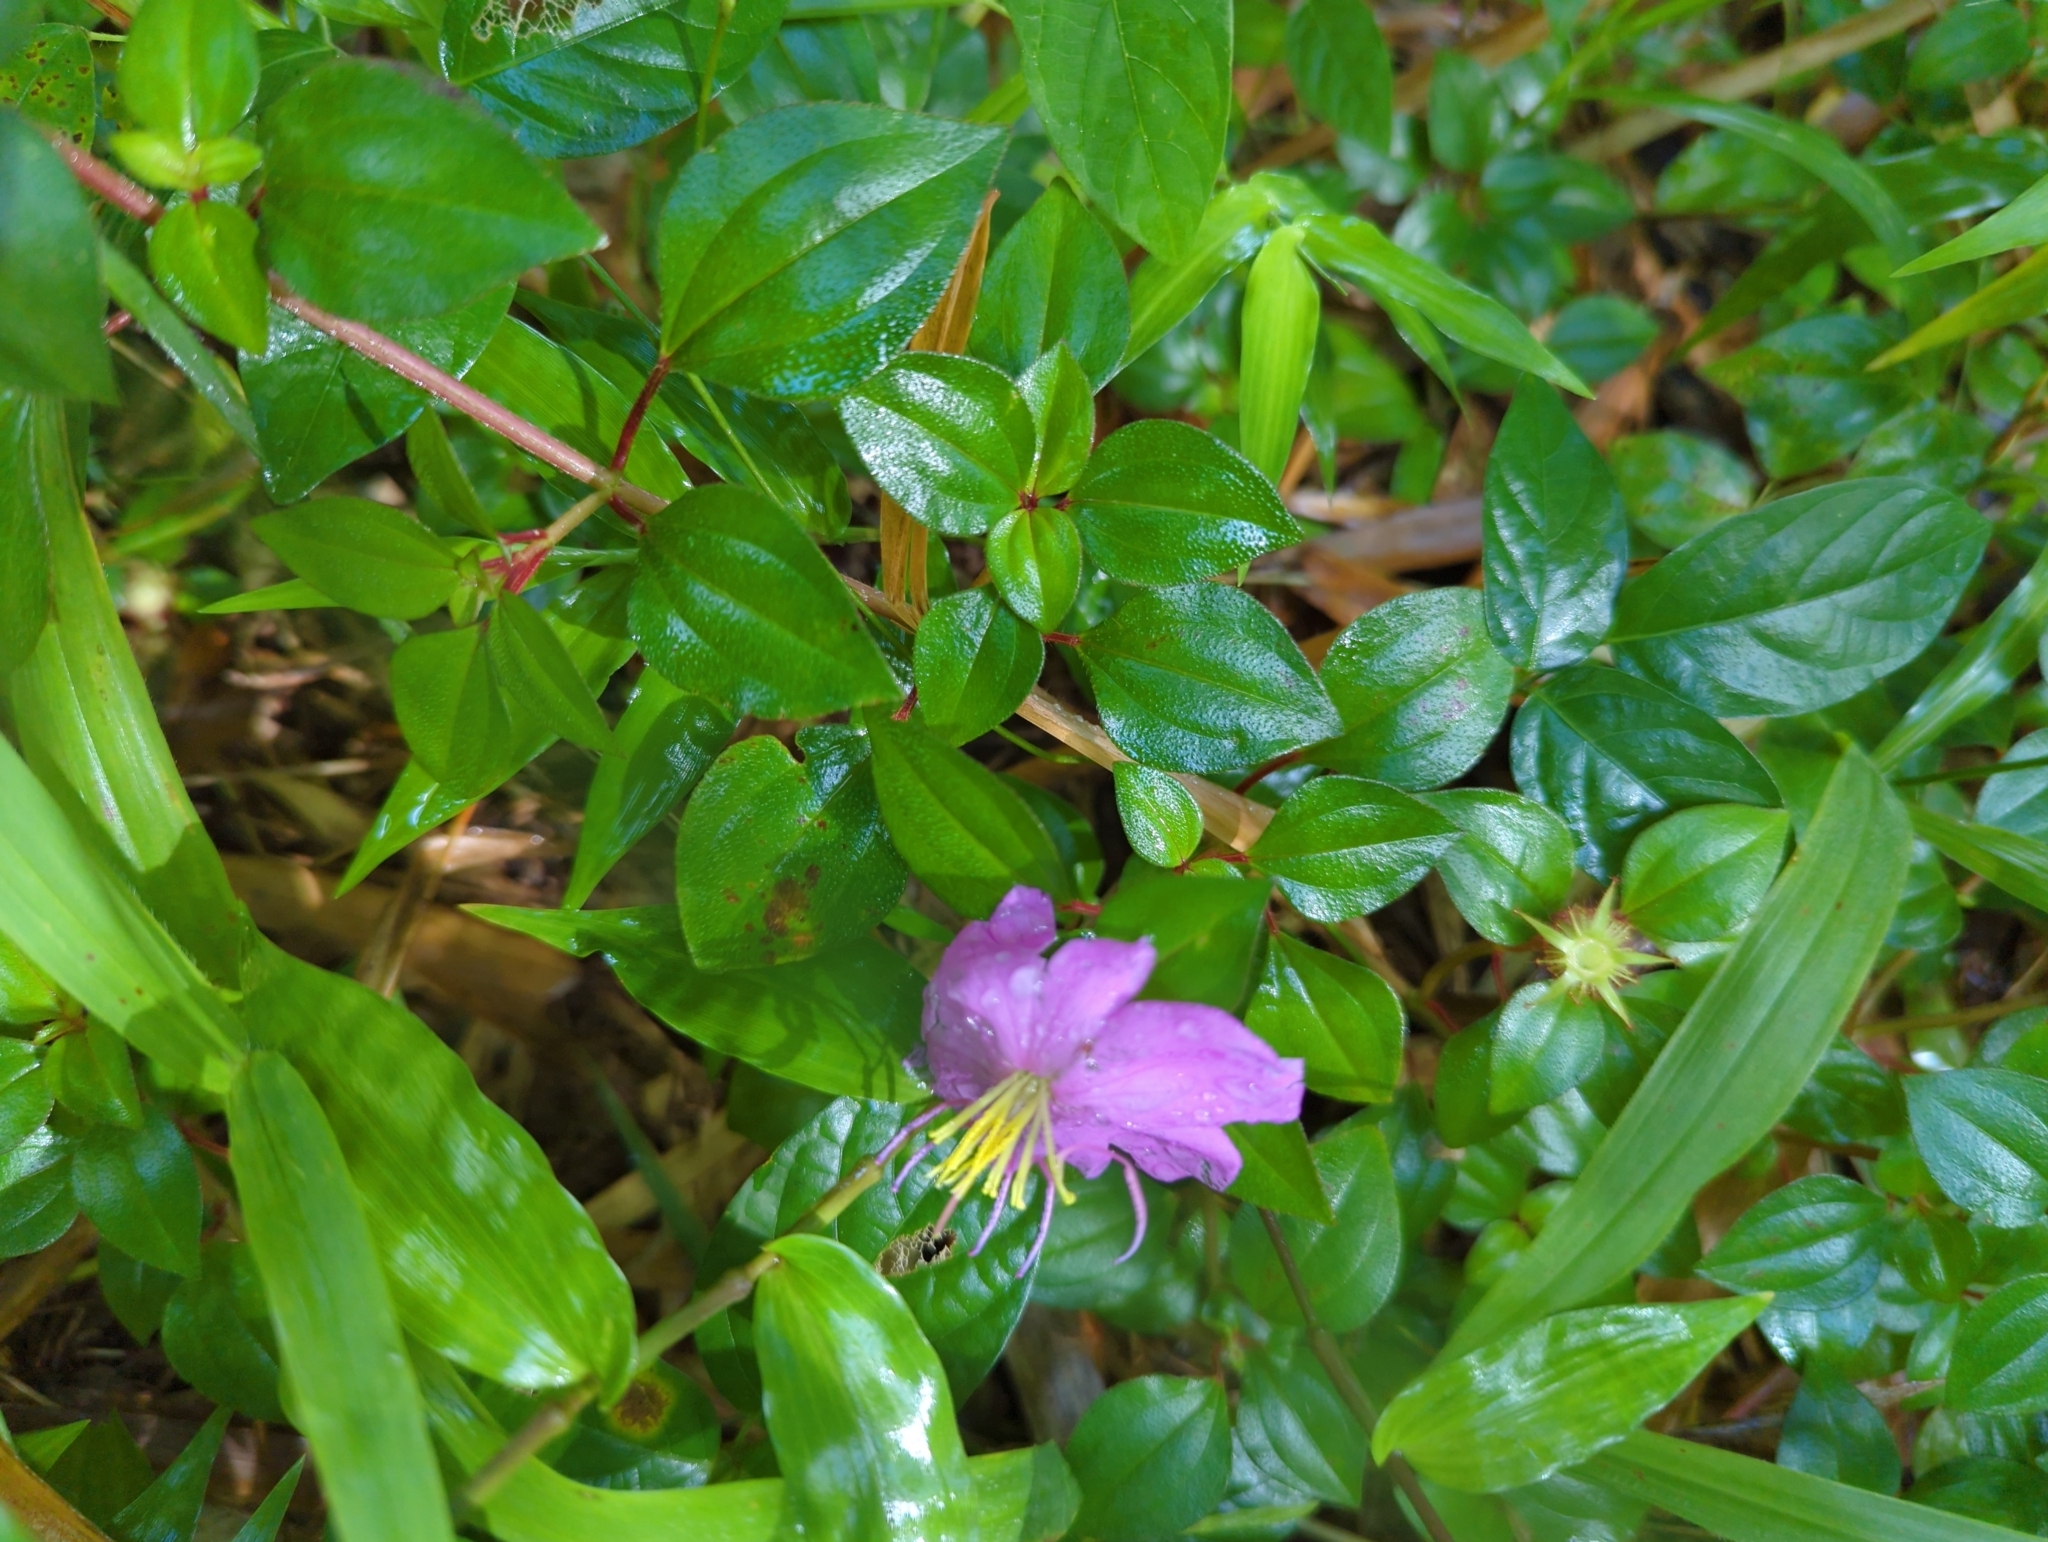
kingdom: Plantae
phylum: Tracheophyta
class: Magnoliopsida
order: Myrtales
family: Melastomataceae
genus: Heterotis
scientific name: Heterotis rotundifolia
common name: Pinklady
